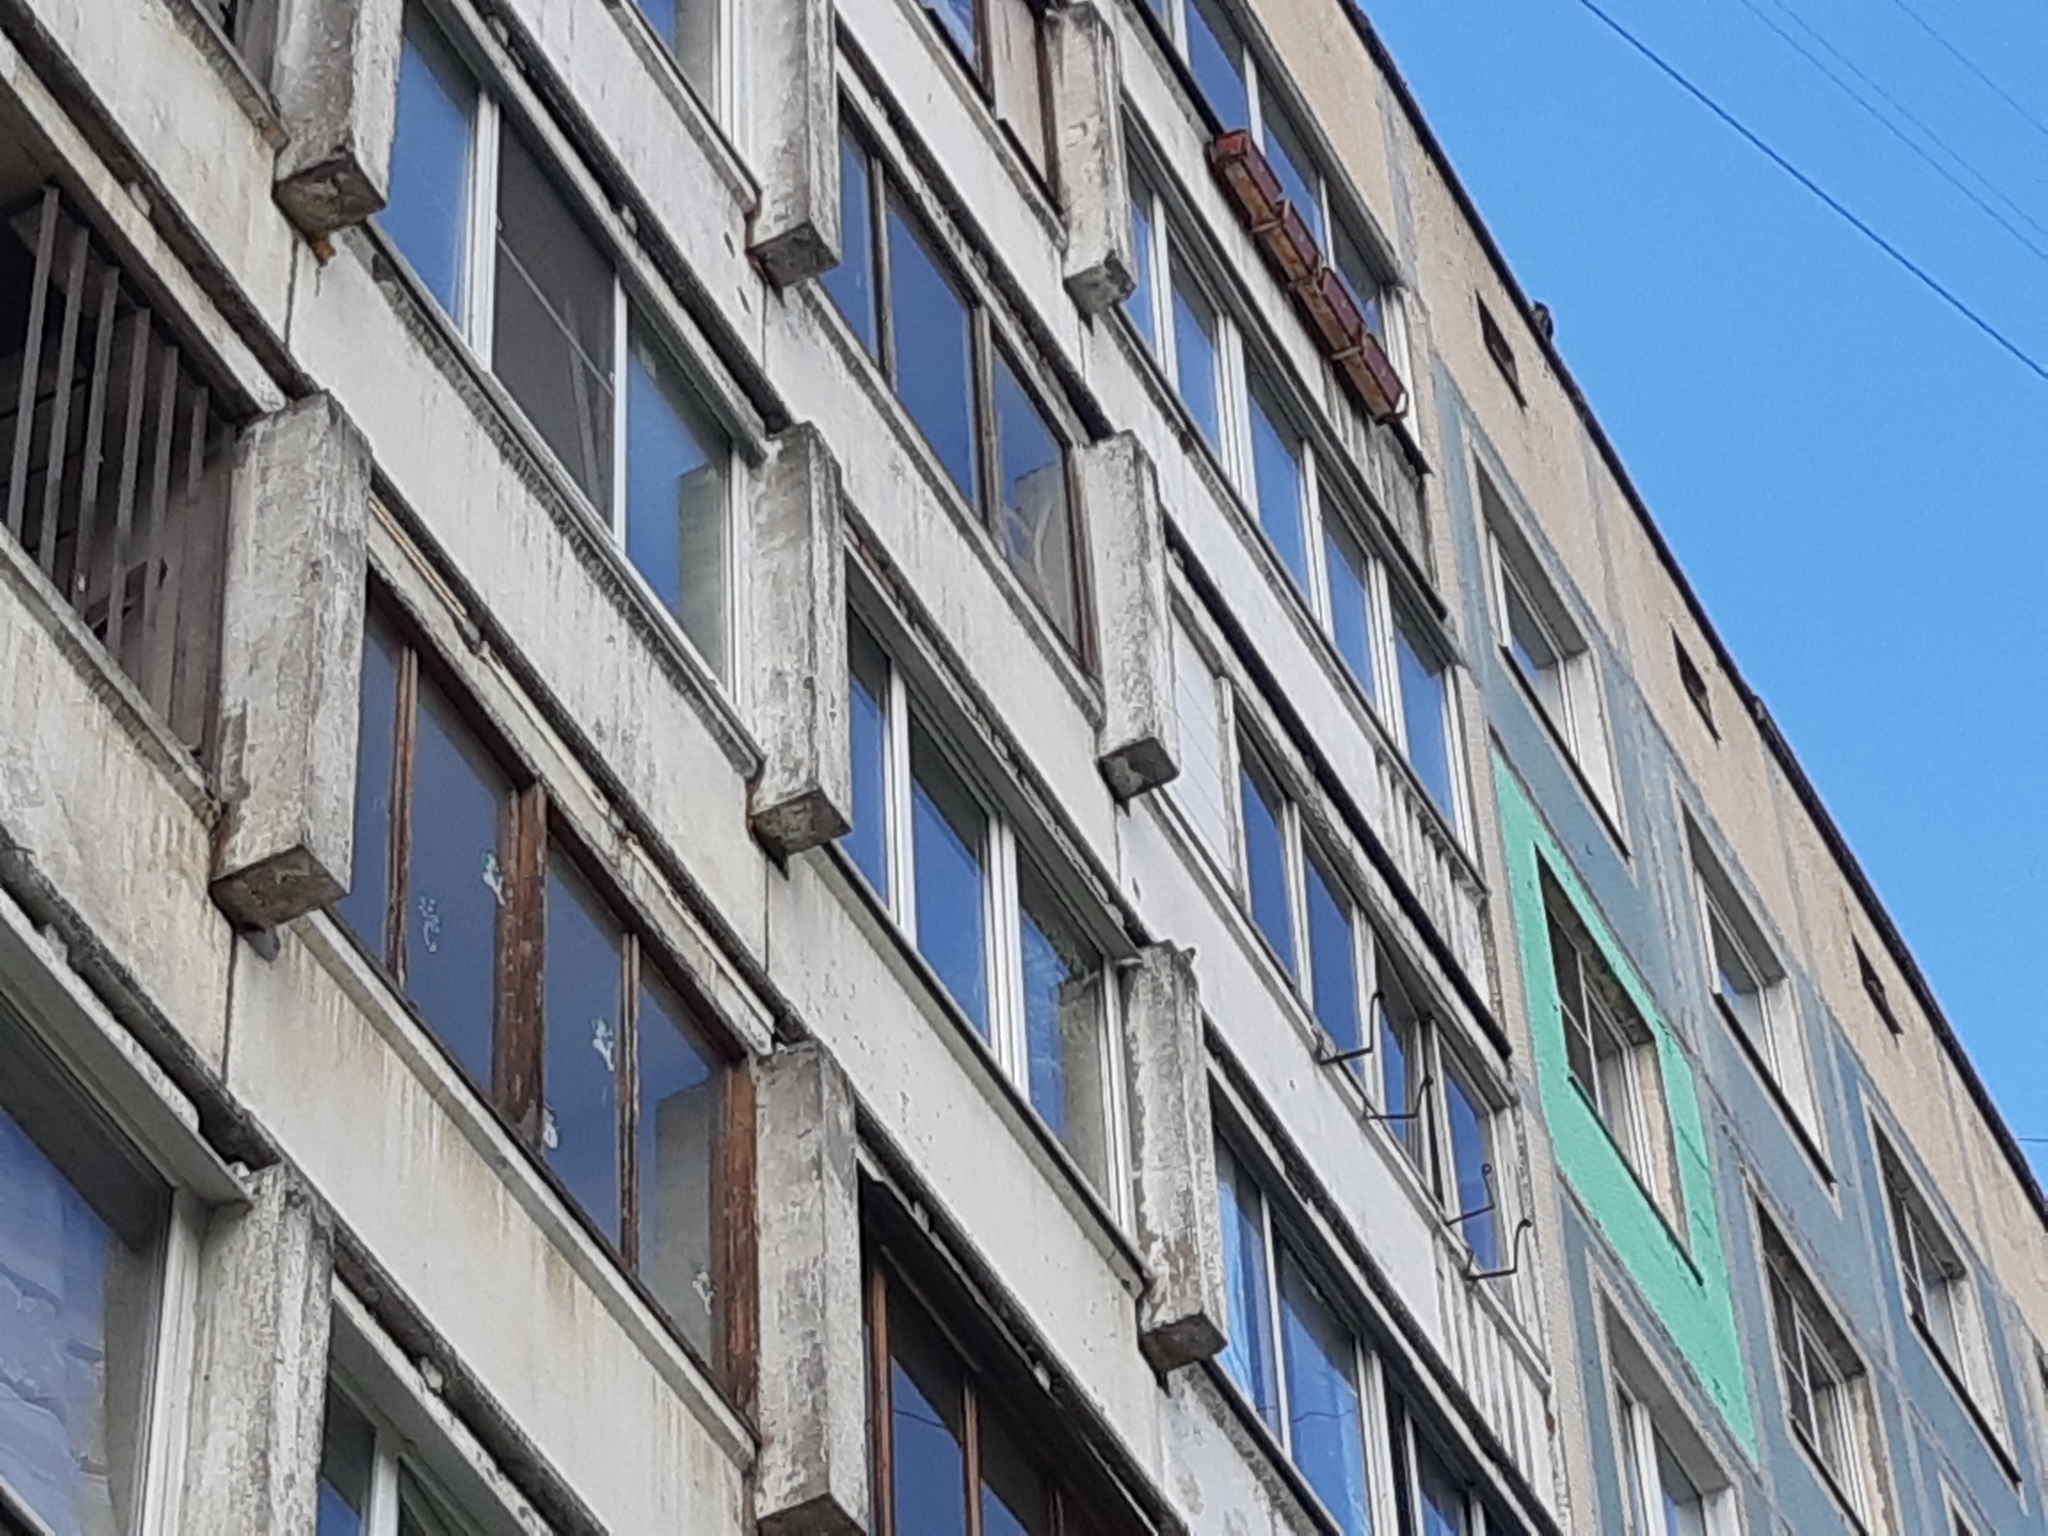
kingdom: Animalia
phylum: Chordata
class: Aves
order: Passeriformes
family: Passeridae
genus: Passer
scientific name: Passer domesticus
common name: House sparrow
